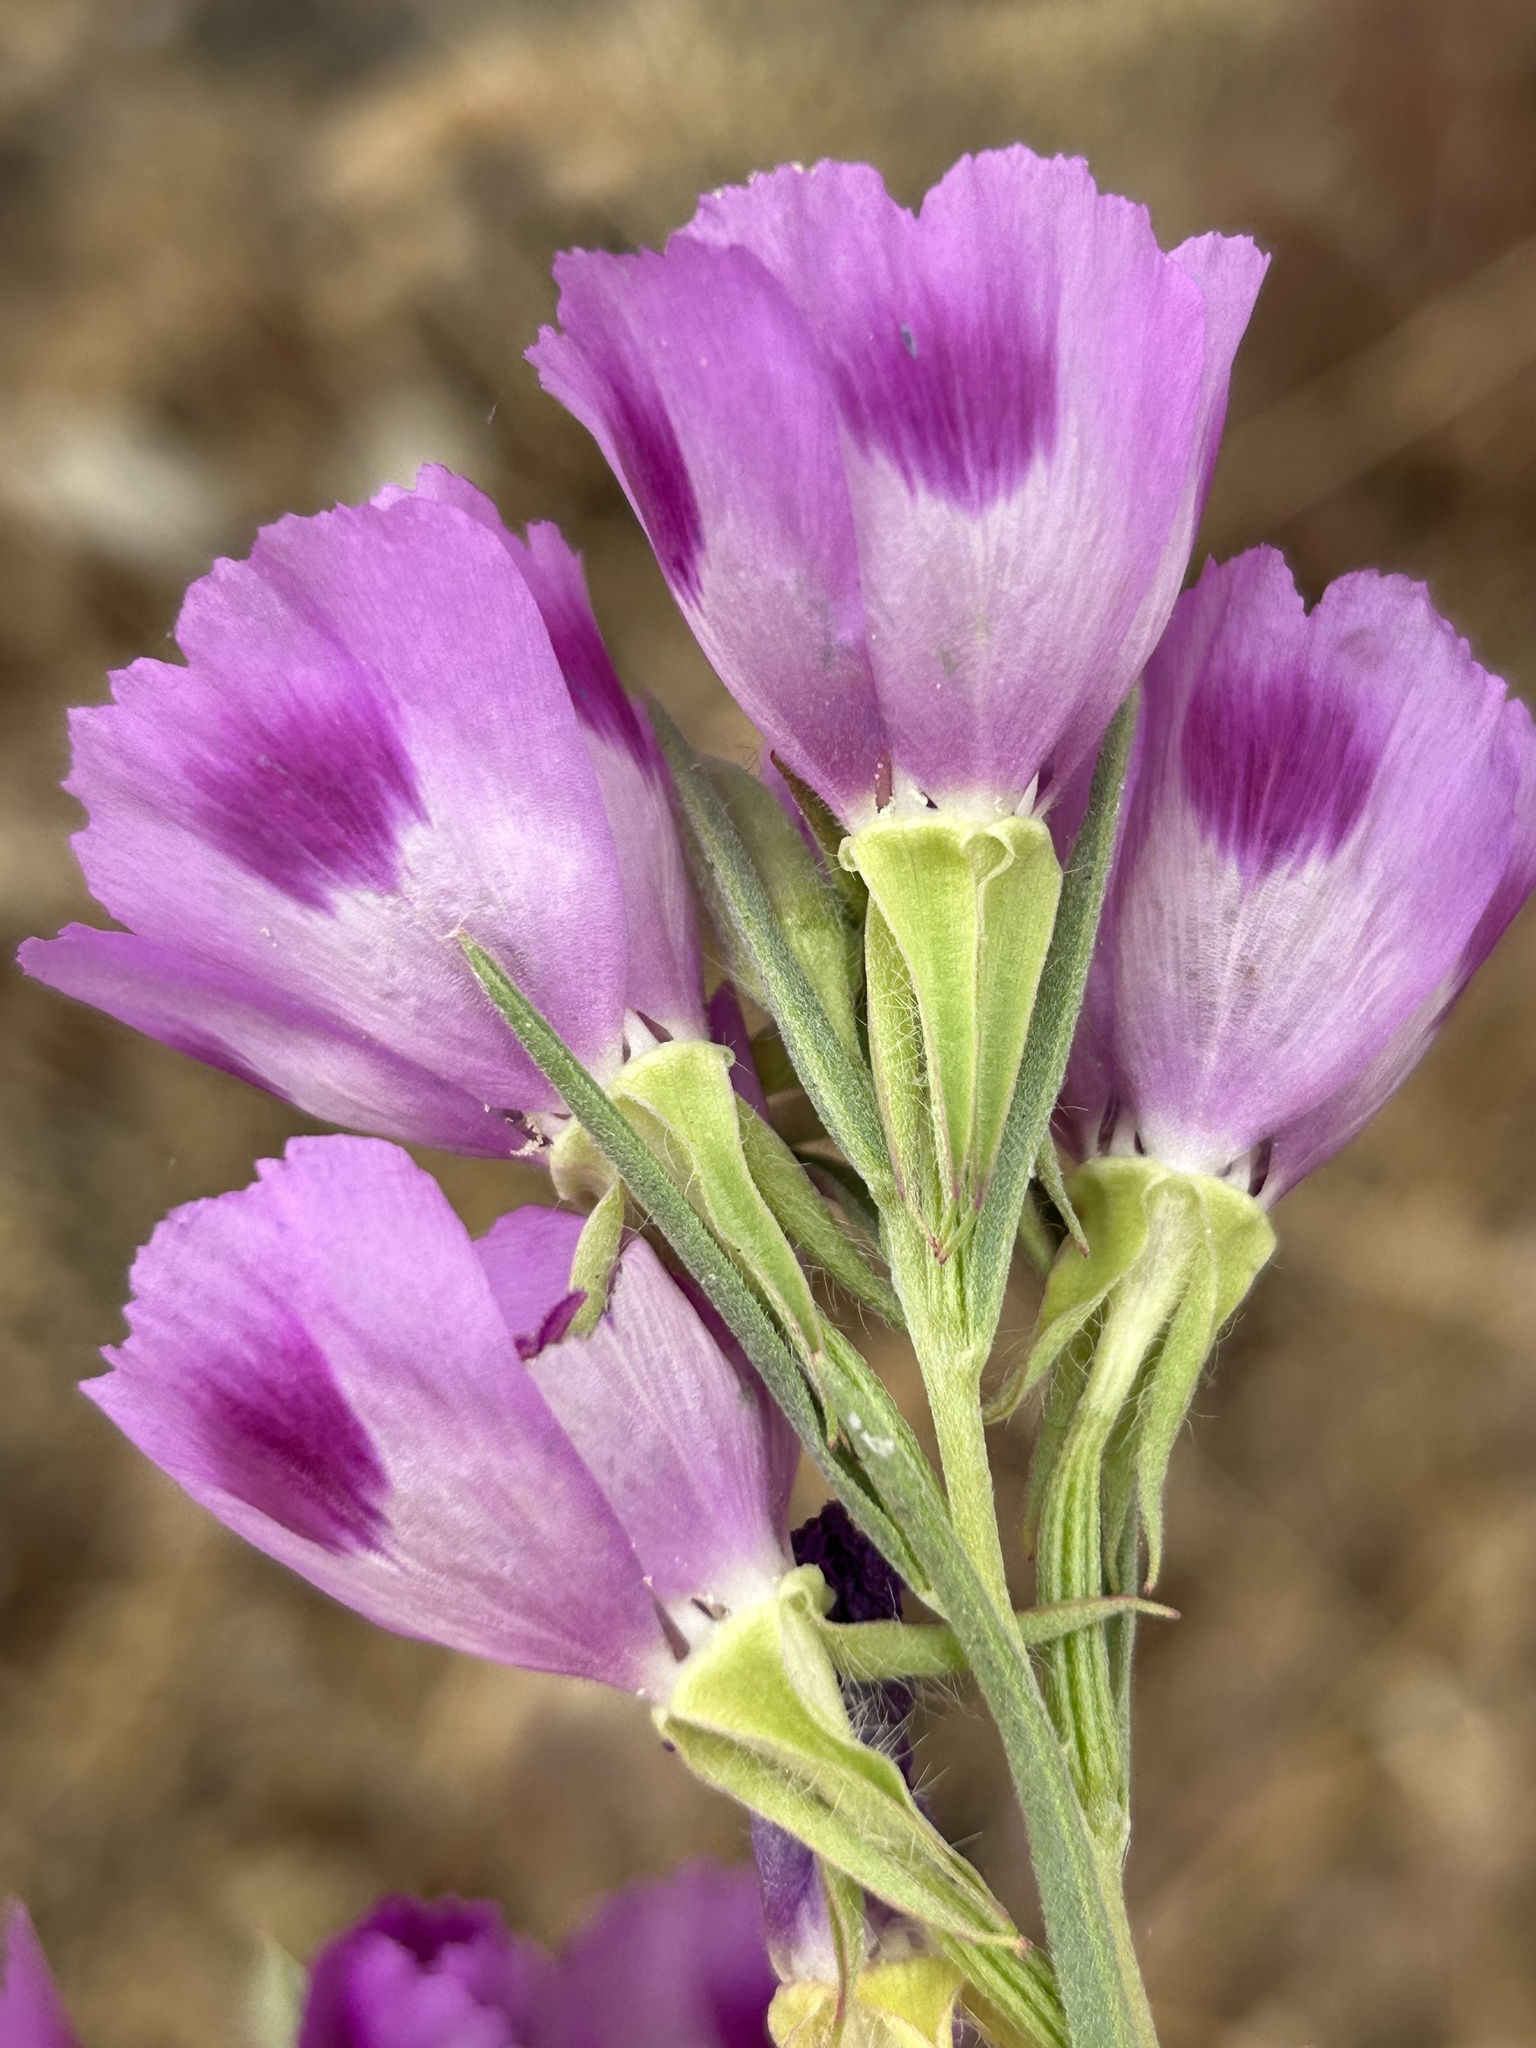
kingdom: Plantae
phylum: Tracheophyta
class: Magnoliopsida
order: Myrtales
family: Onagraceae
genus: Clarkia
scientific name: Clarkia williamsonii
